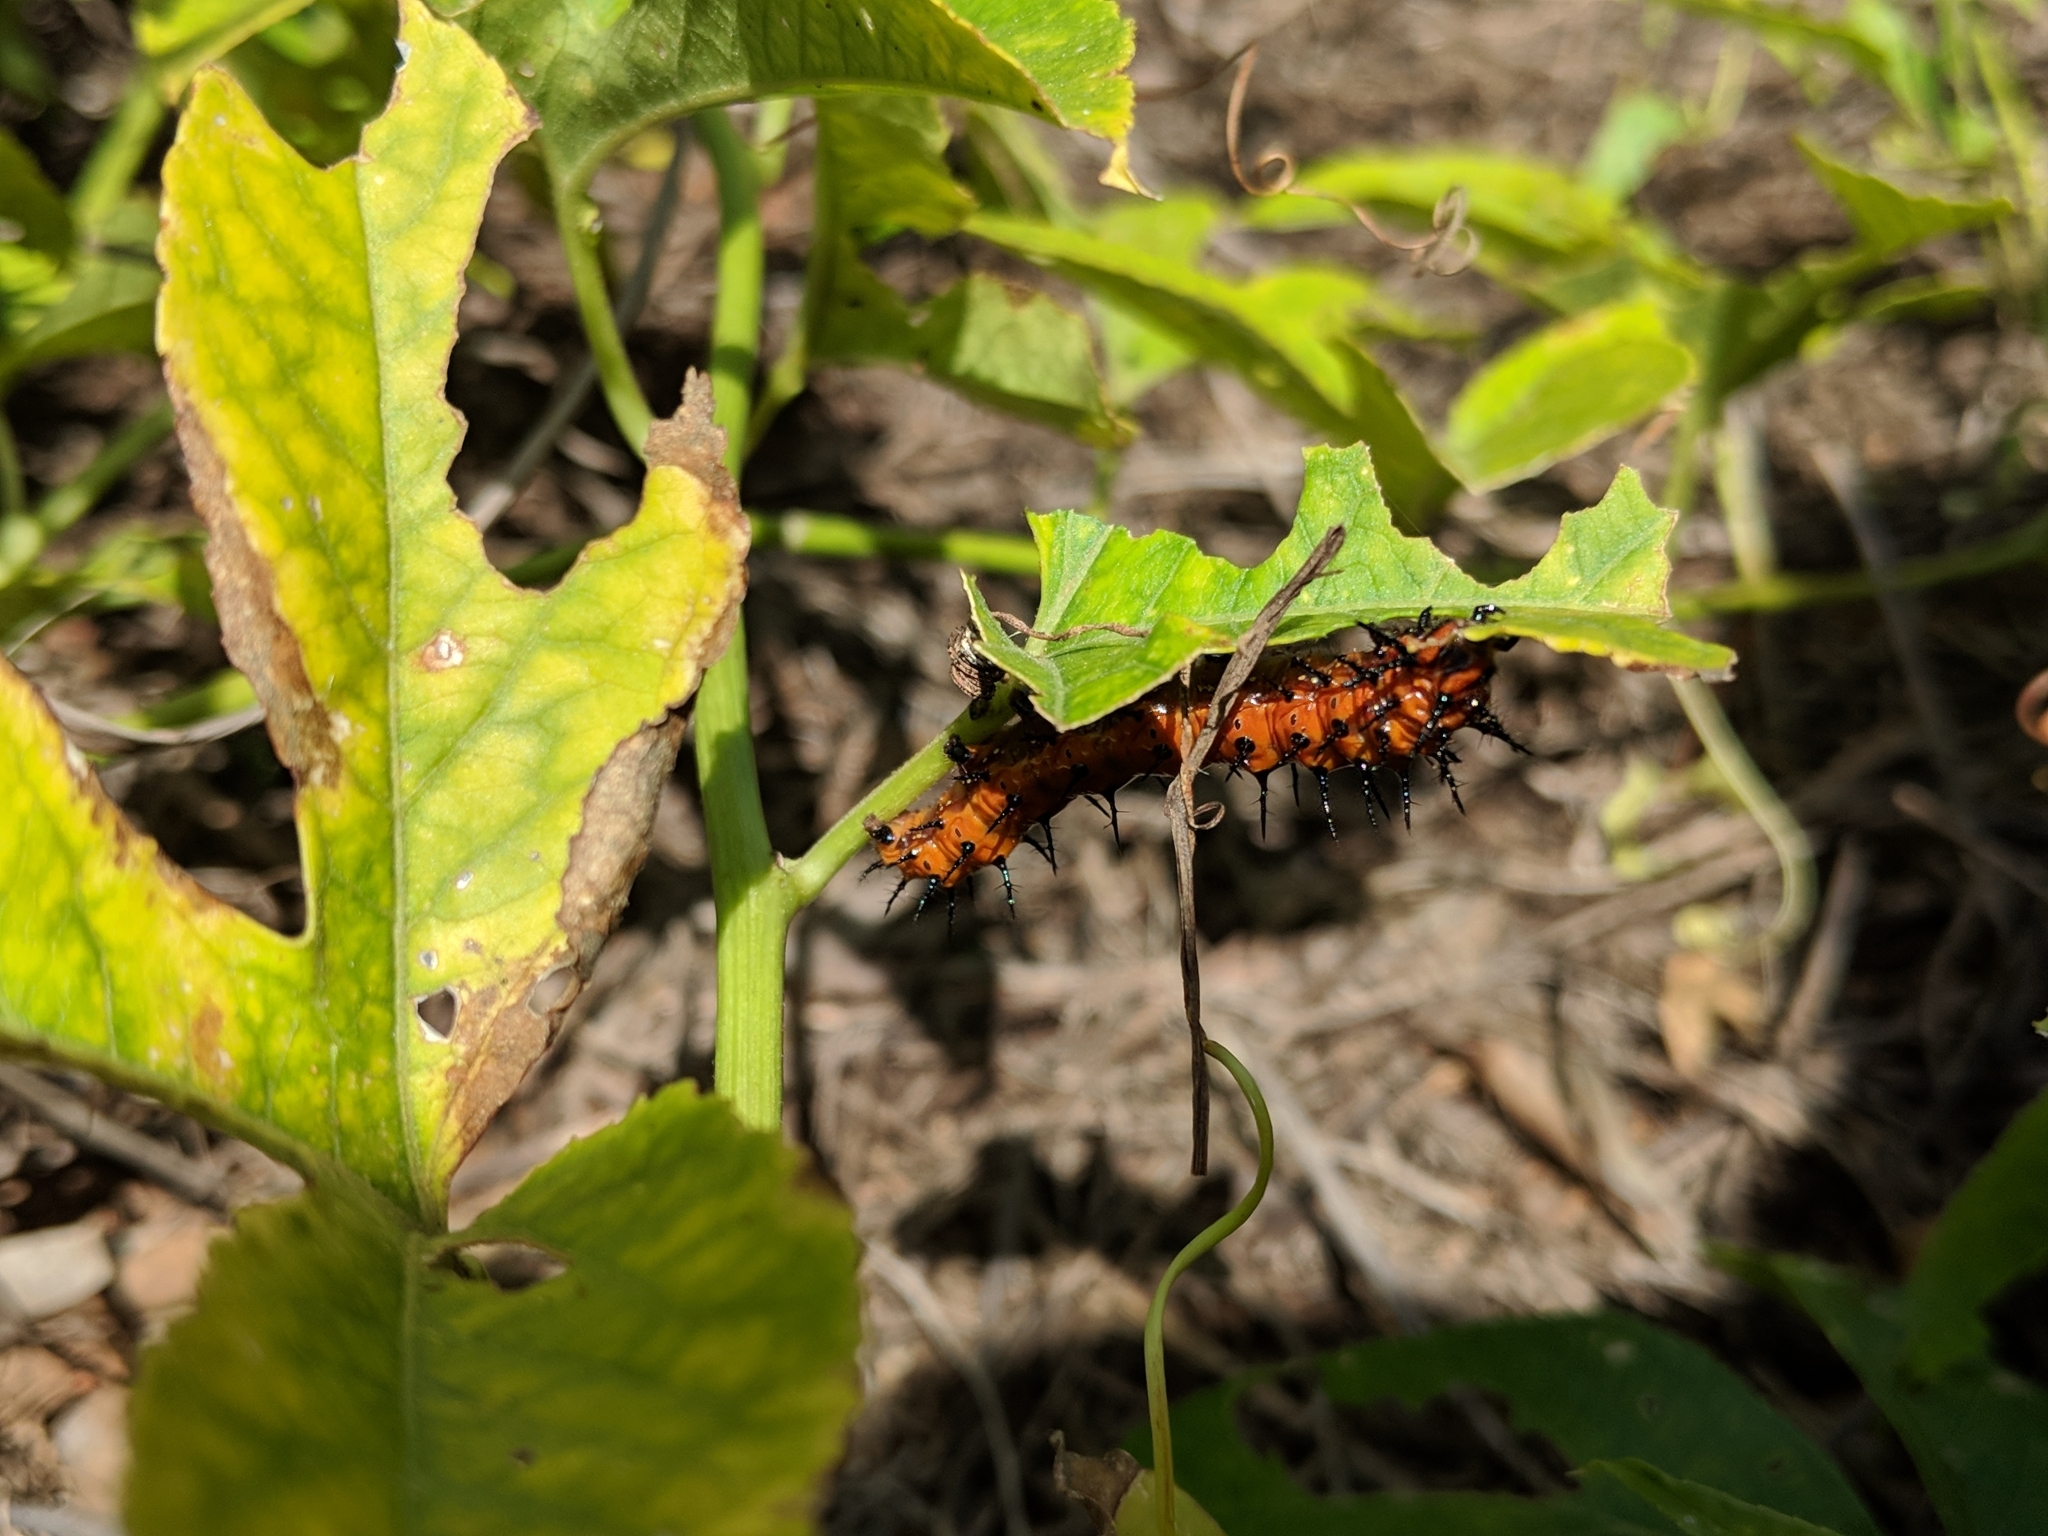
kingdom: Animalia
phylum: Arthropoda
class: Insecta
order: Lepidoptera
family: Nymphalidae
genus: Dione
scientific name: Dione vanillae
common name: Gulf fritillary
